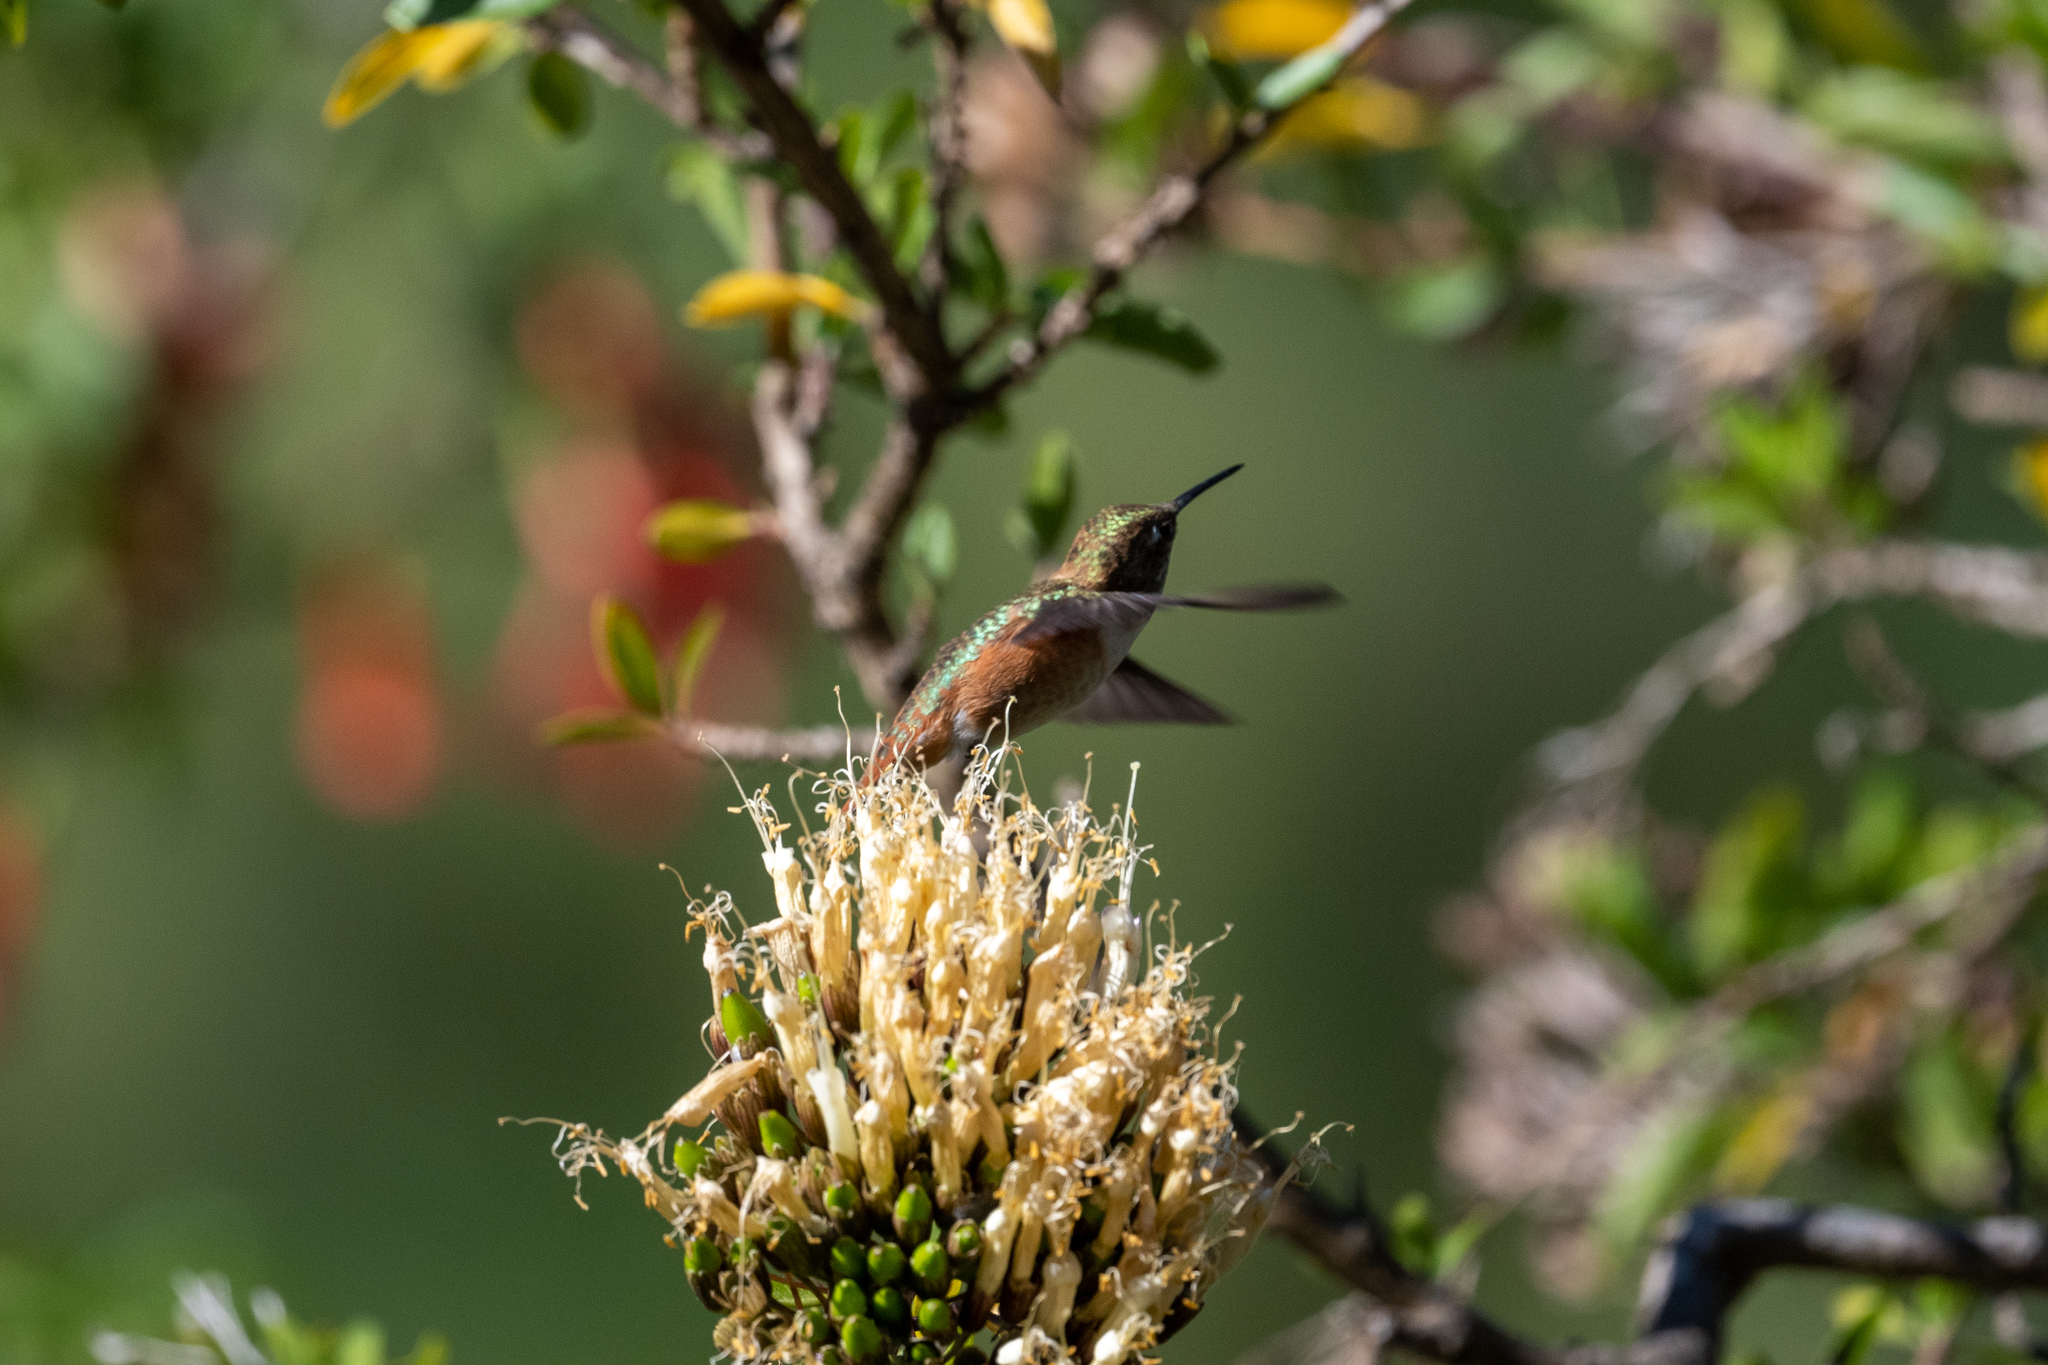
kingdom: Animalia
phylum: Chordata
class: Aves
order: Apodiformes
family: Trochilidae
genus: Selasphorus
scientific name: Selasphorus
